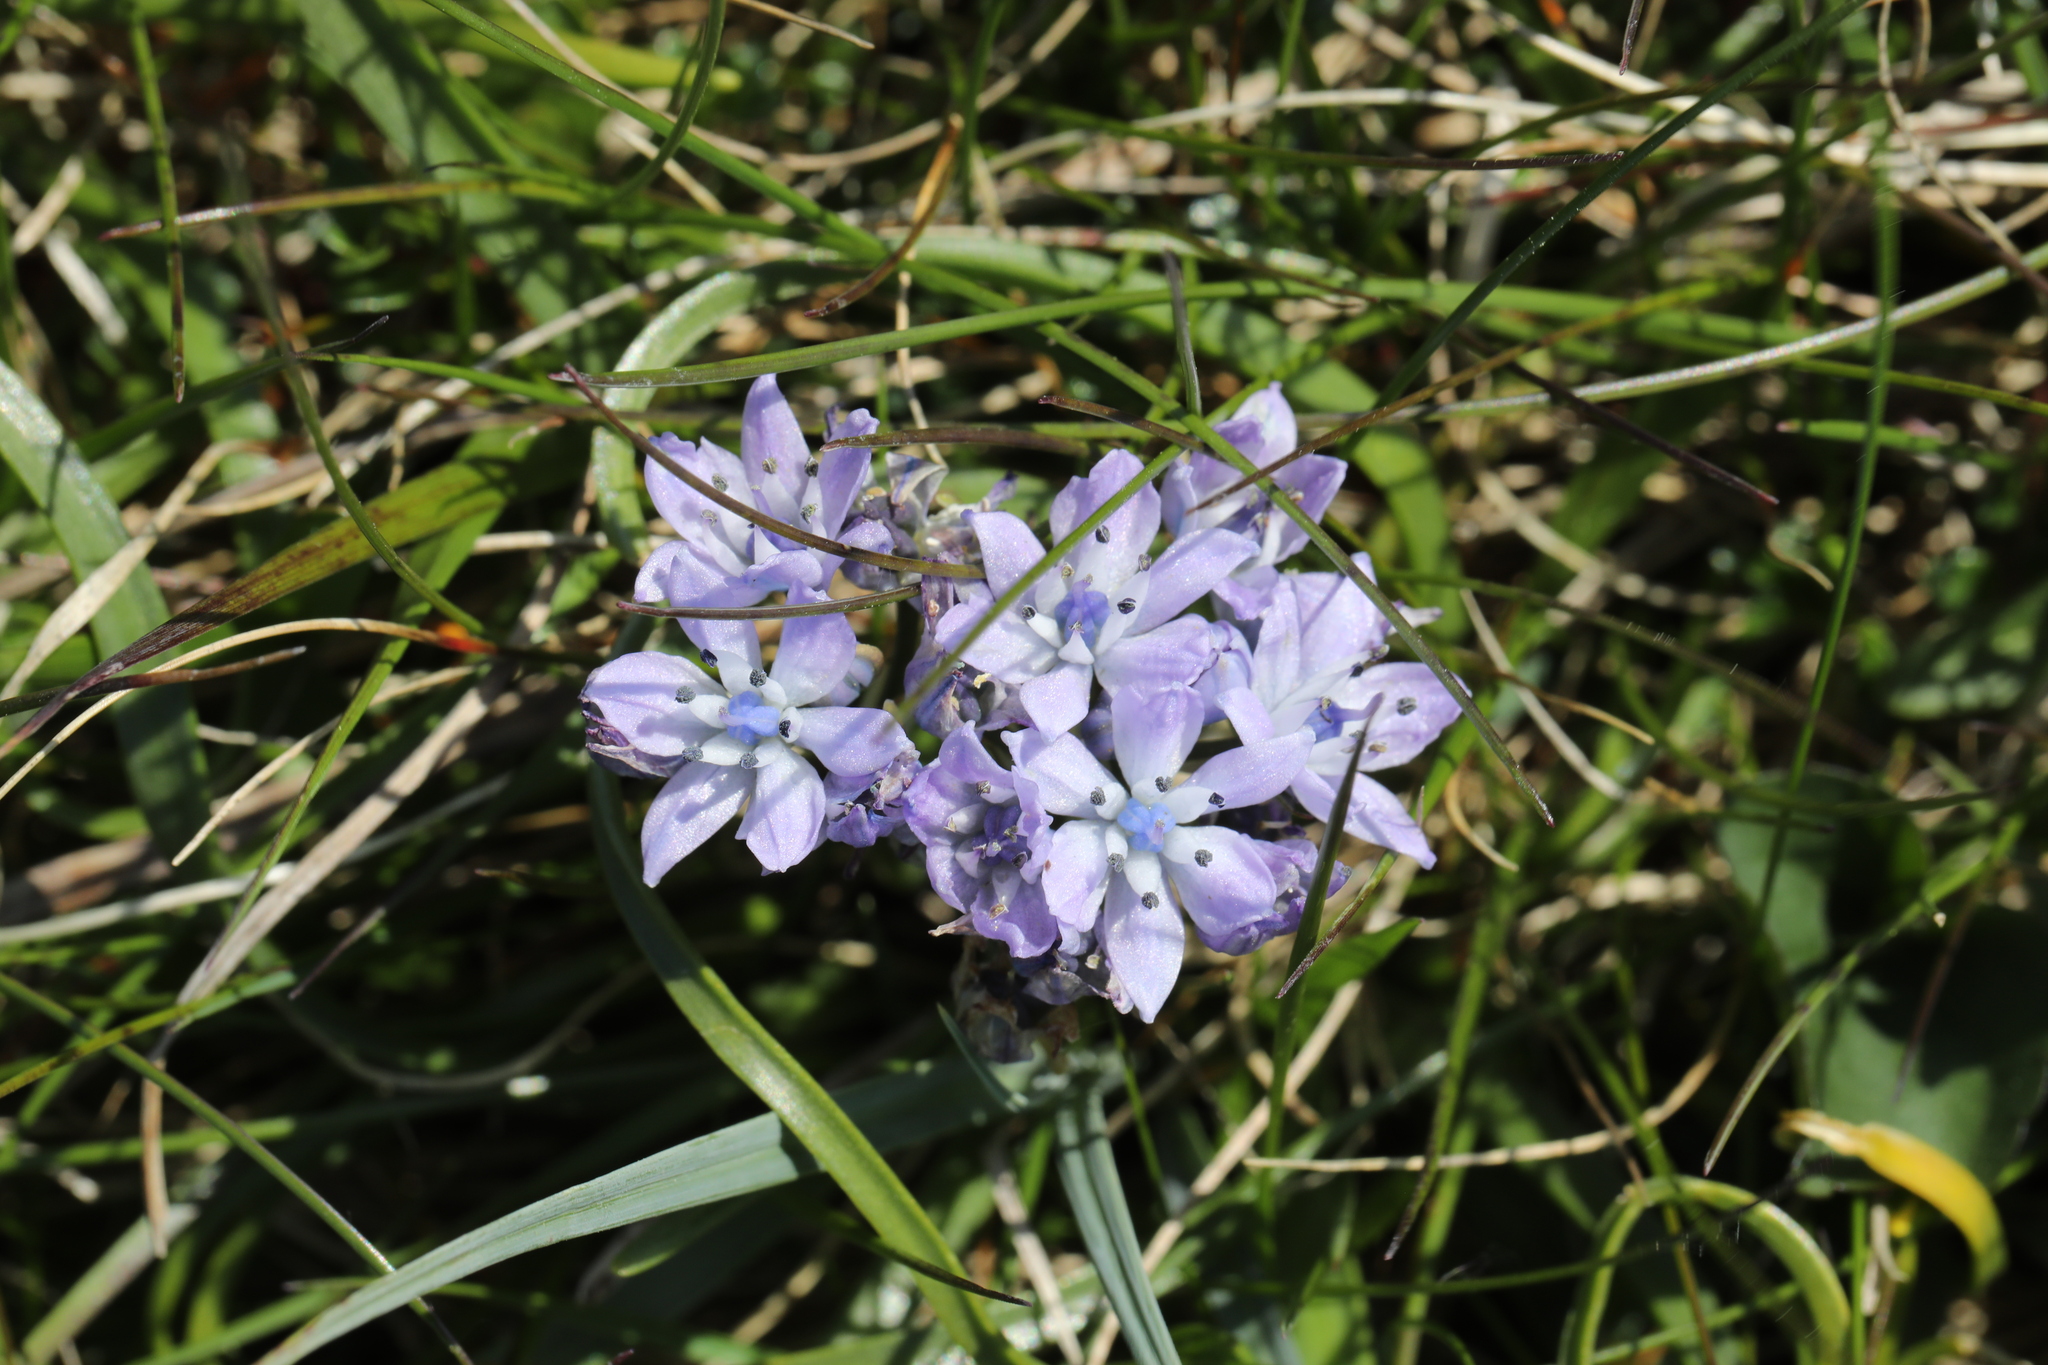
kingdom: Plantae
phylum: Tracheophyta
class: Liliopsida
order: Asparagales
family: Asparagaceae
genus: Scilla
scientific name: Scilla verna
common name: Spring squill
